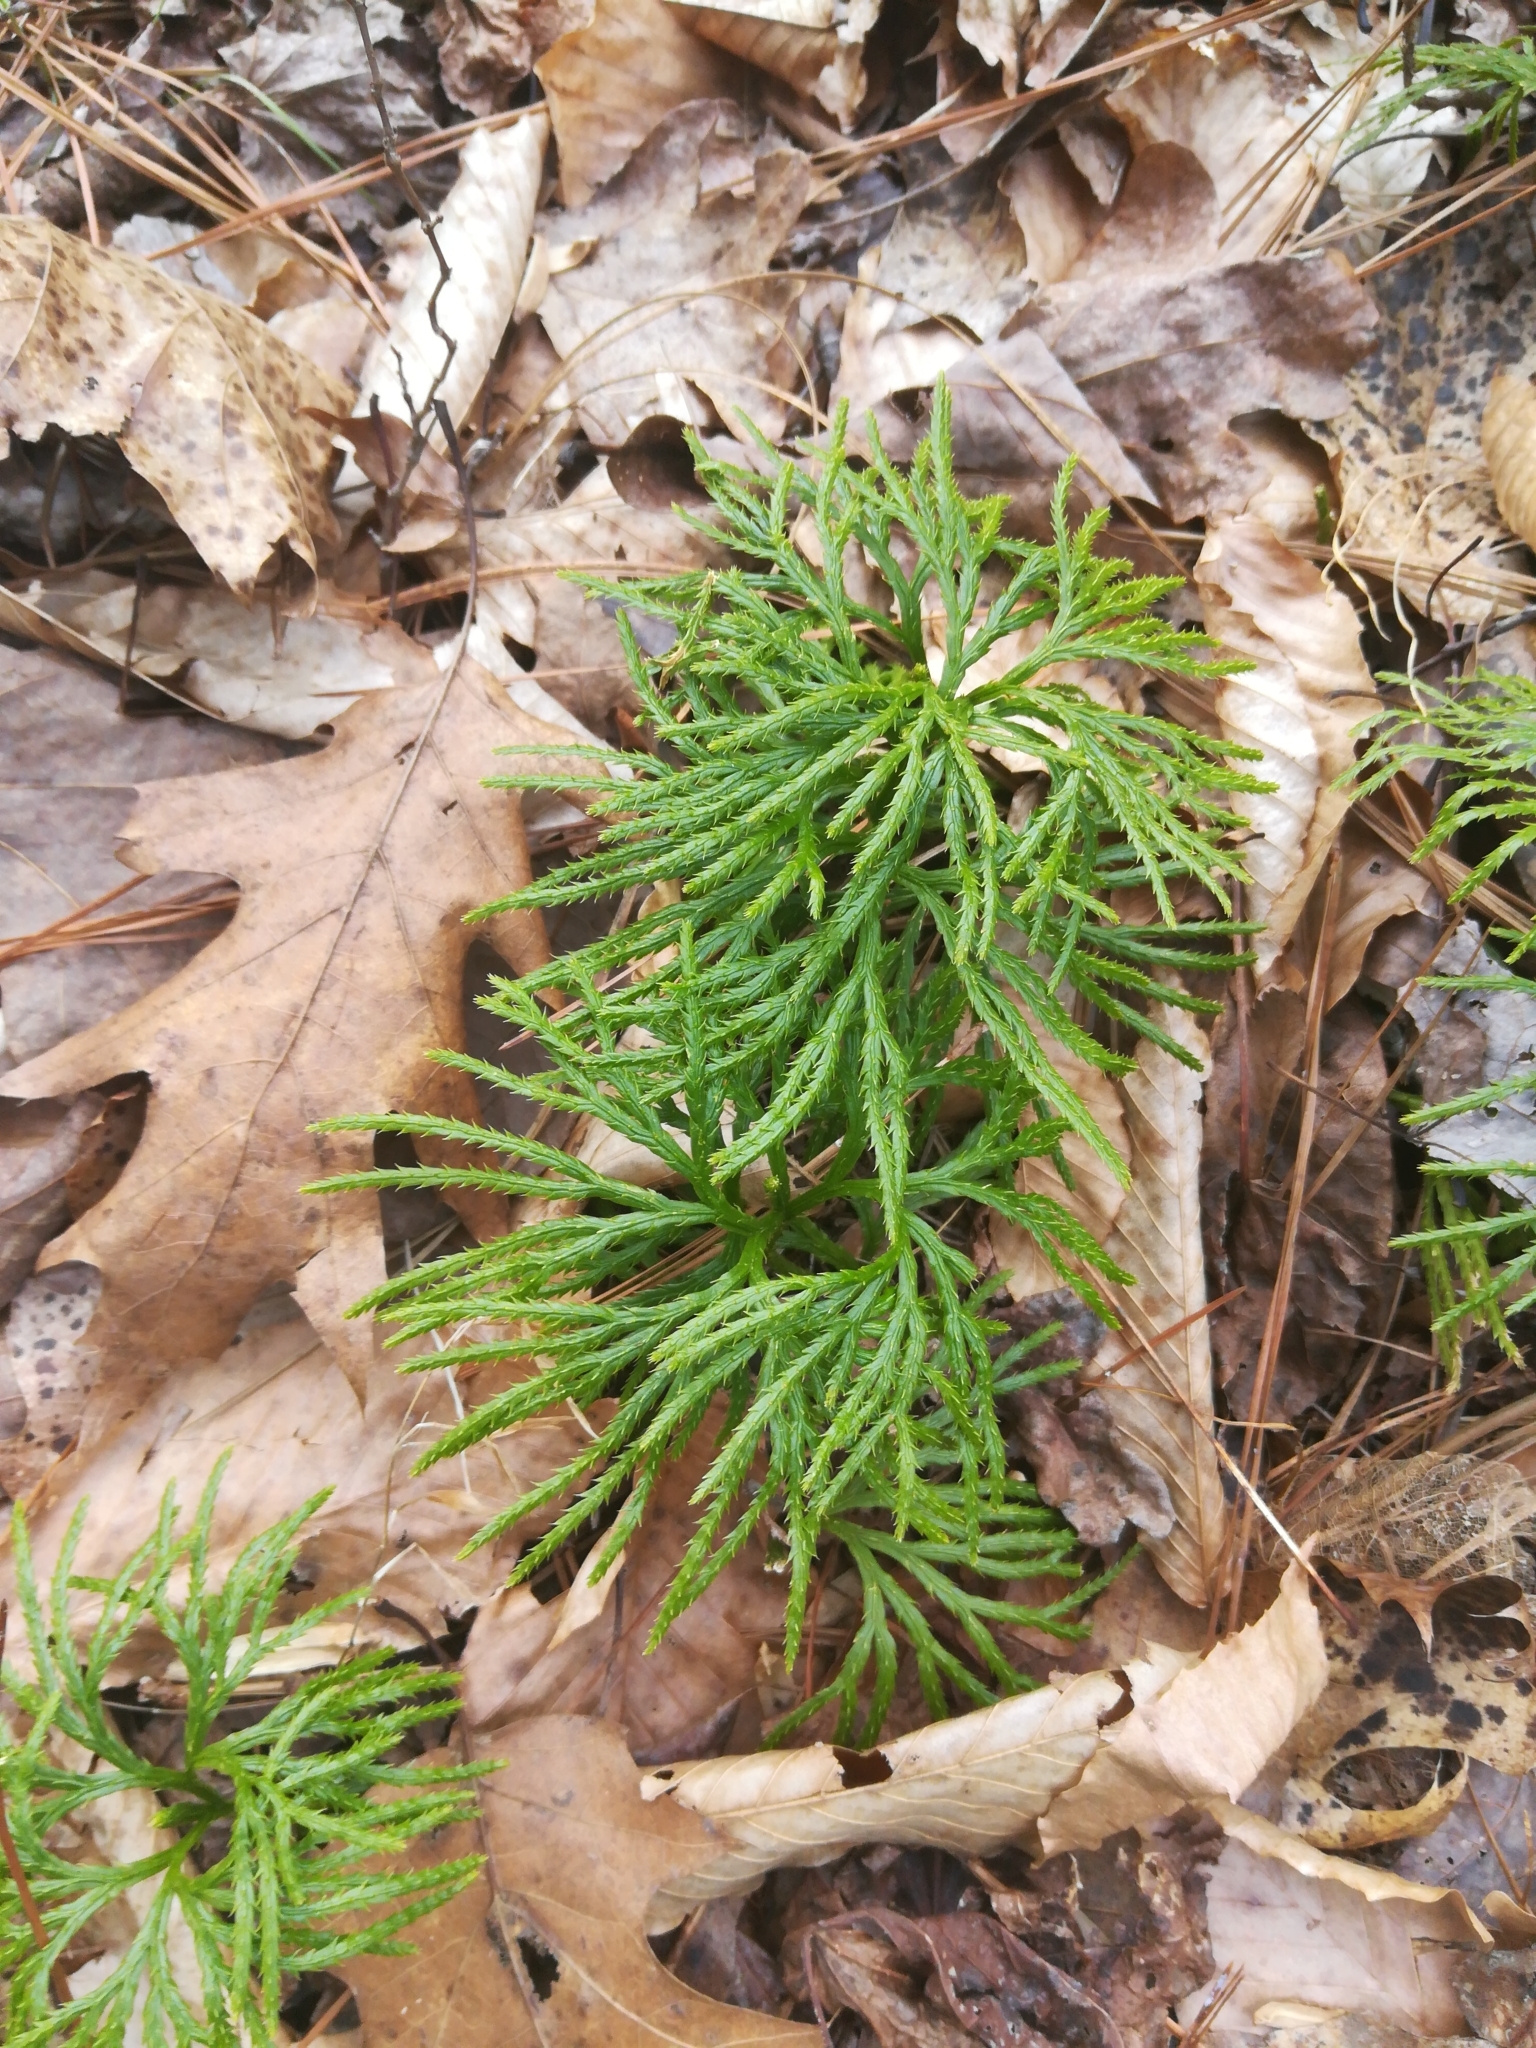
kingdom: Plantae
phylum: Tracheophyta
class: Lycopodiopsida
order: Lycopodiales
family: Lycopodiaceae
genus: Diphasiastrum
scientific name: Diphasiastrum digitatum
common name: Southern running-pine
